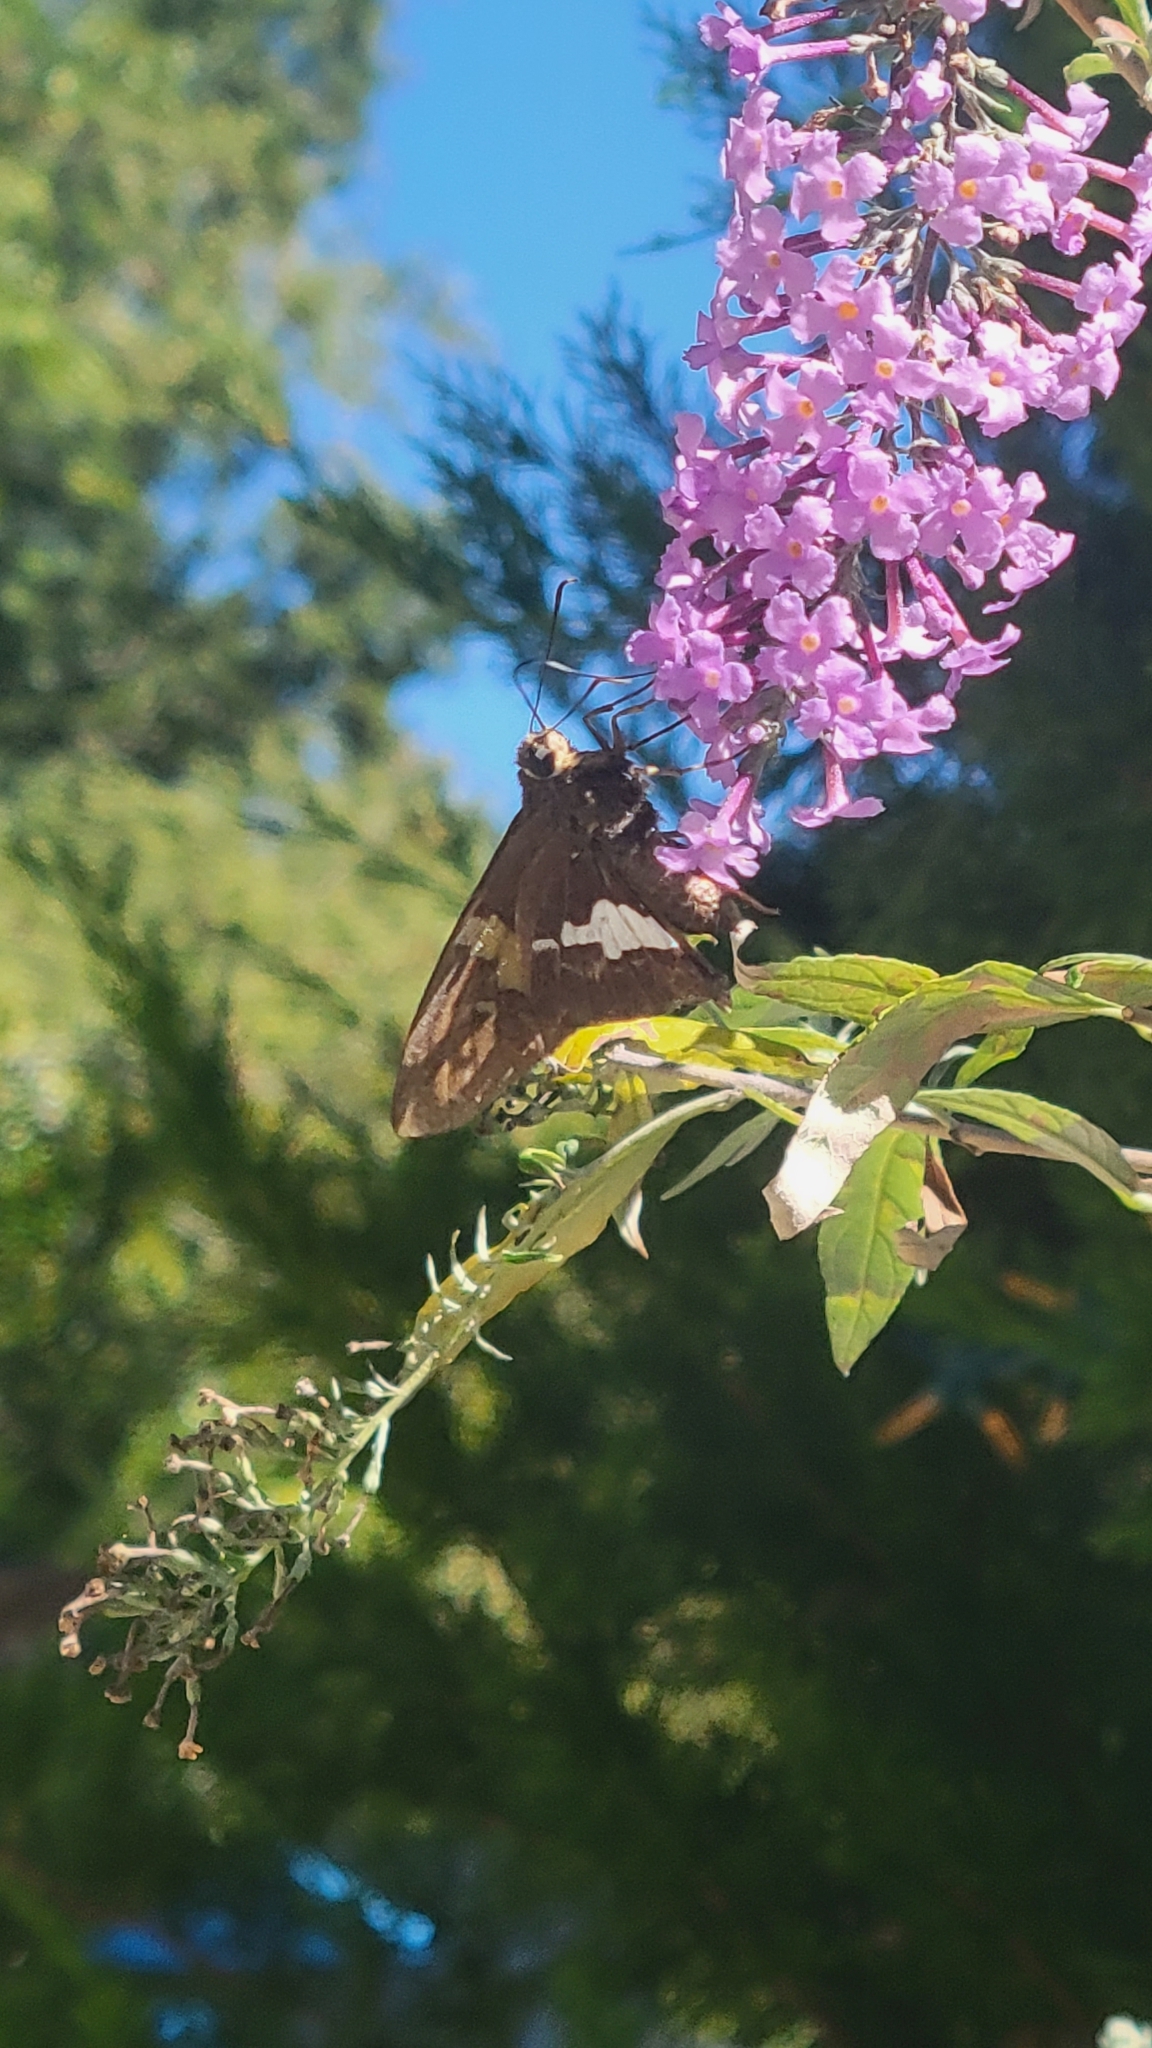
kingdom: Animalia
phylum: Arthropoda
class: Insecta
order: Lepidoptera
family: Hesperiidae
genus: Epargyreus
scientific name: Epargyreus clarus
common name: Silver-spotted skipper
